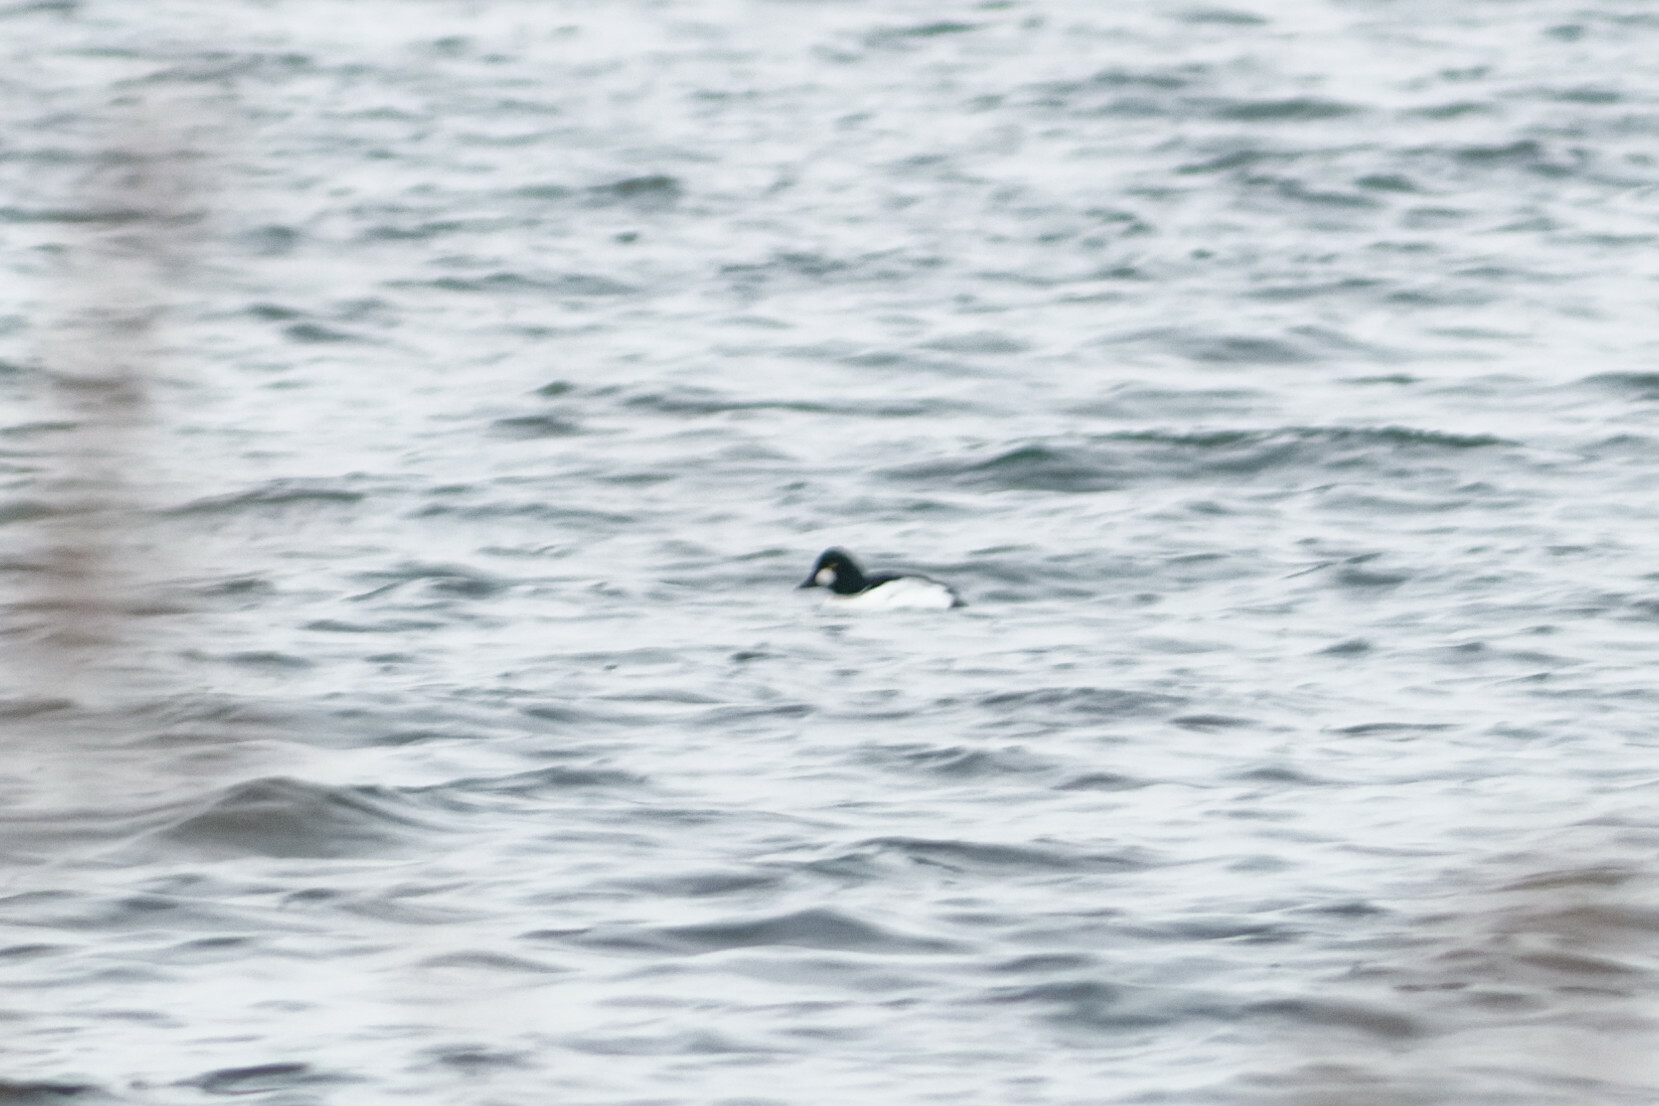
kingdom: Animalia
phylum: Chordata
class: Aves
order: Anseriformes
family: Anatidae
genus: Bucephala
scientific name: Bucephala clangula
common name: Common goldeneye
